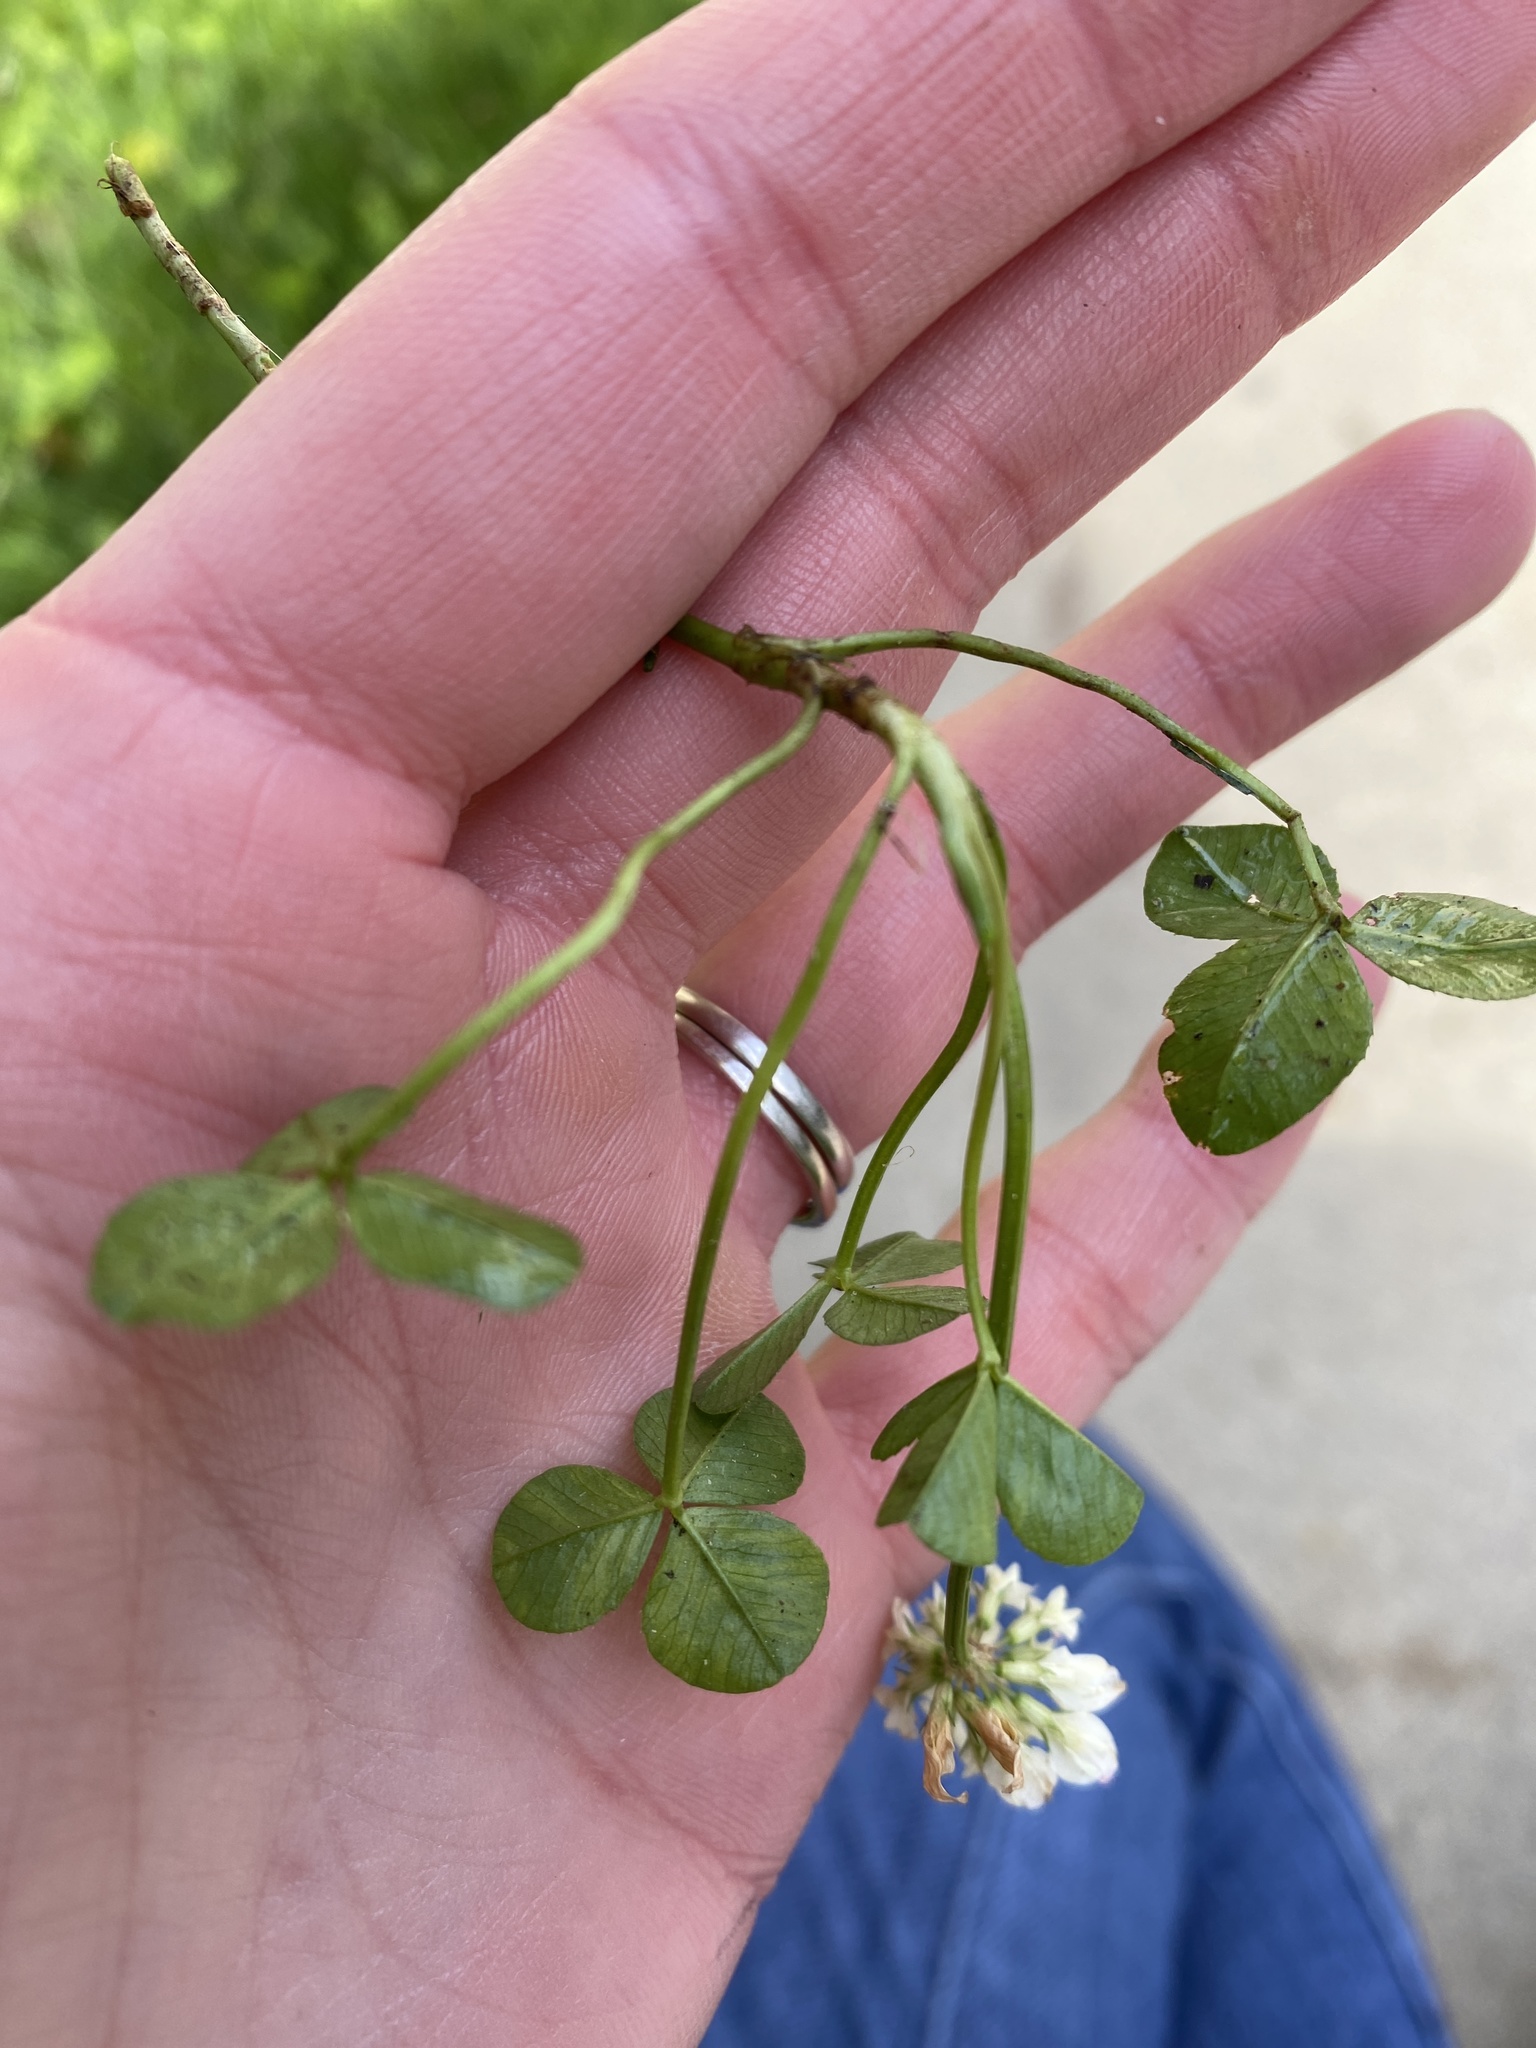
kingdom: Plantae
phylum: Tracheophyta
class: Magnoliopsida
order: Fabales
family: Fabaceae
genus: Trifolium
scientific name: Trifolium repens
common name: White clover
